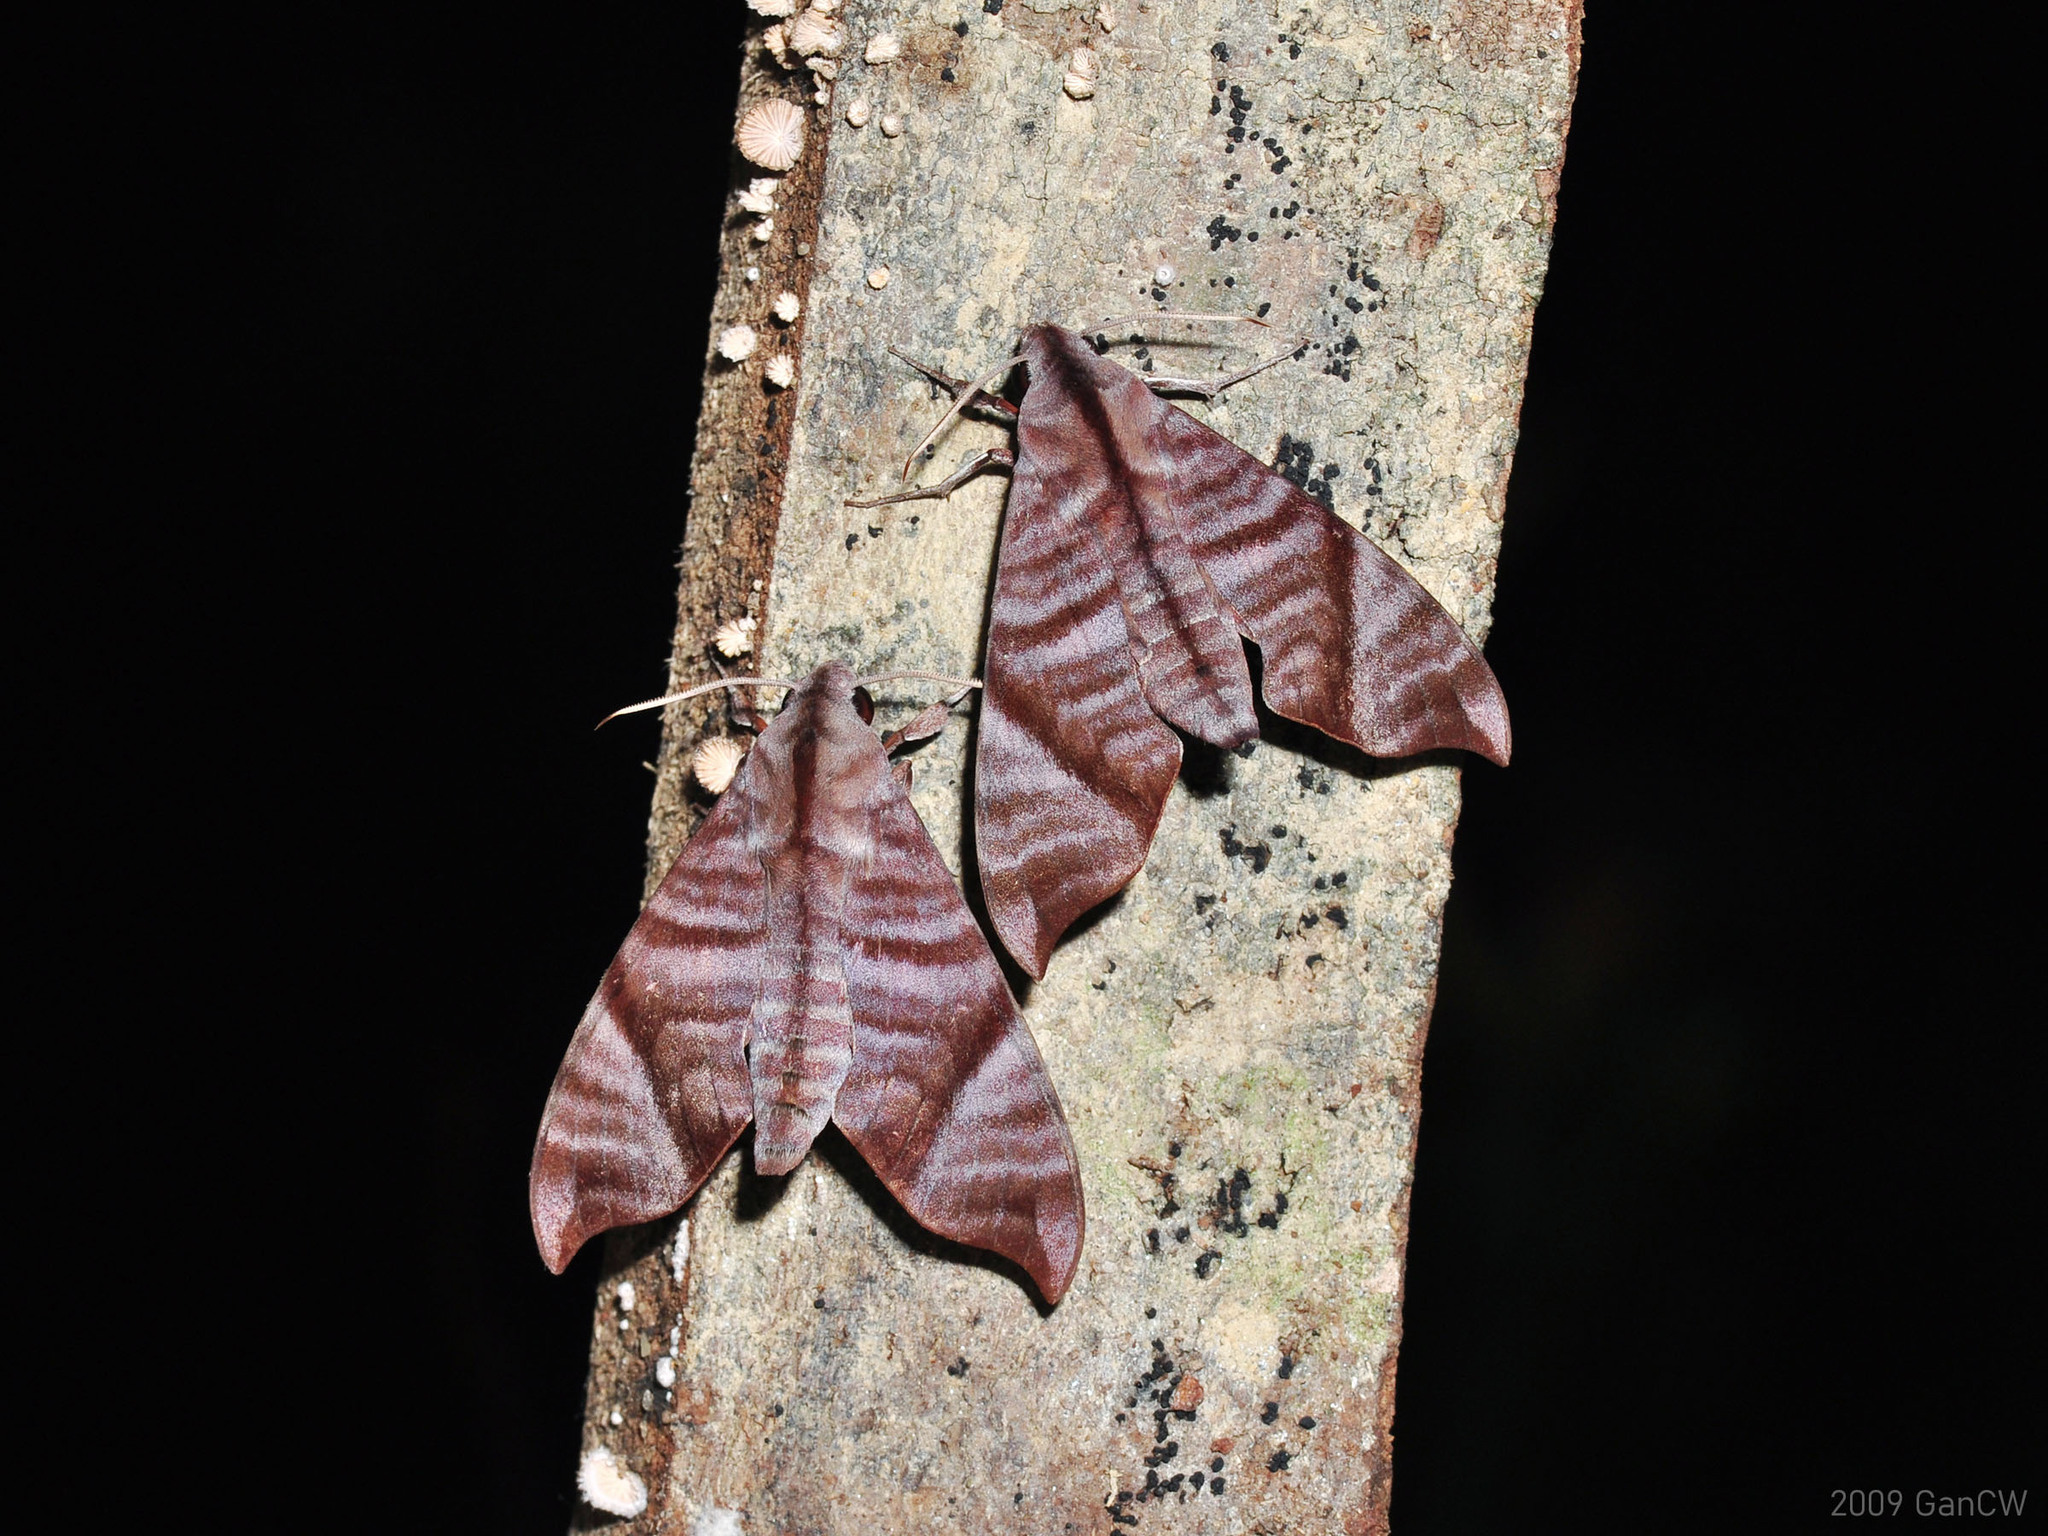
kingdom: Animalia
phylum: Arthropoda
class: Insecta
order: Lepidoptera
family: Sphingidae
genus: Dahira
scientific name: Dahira falcata
